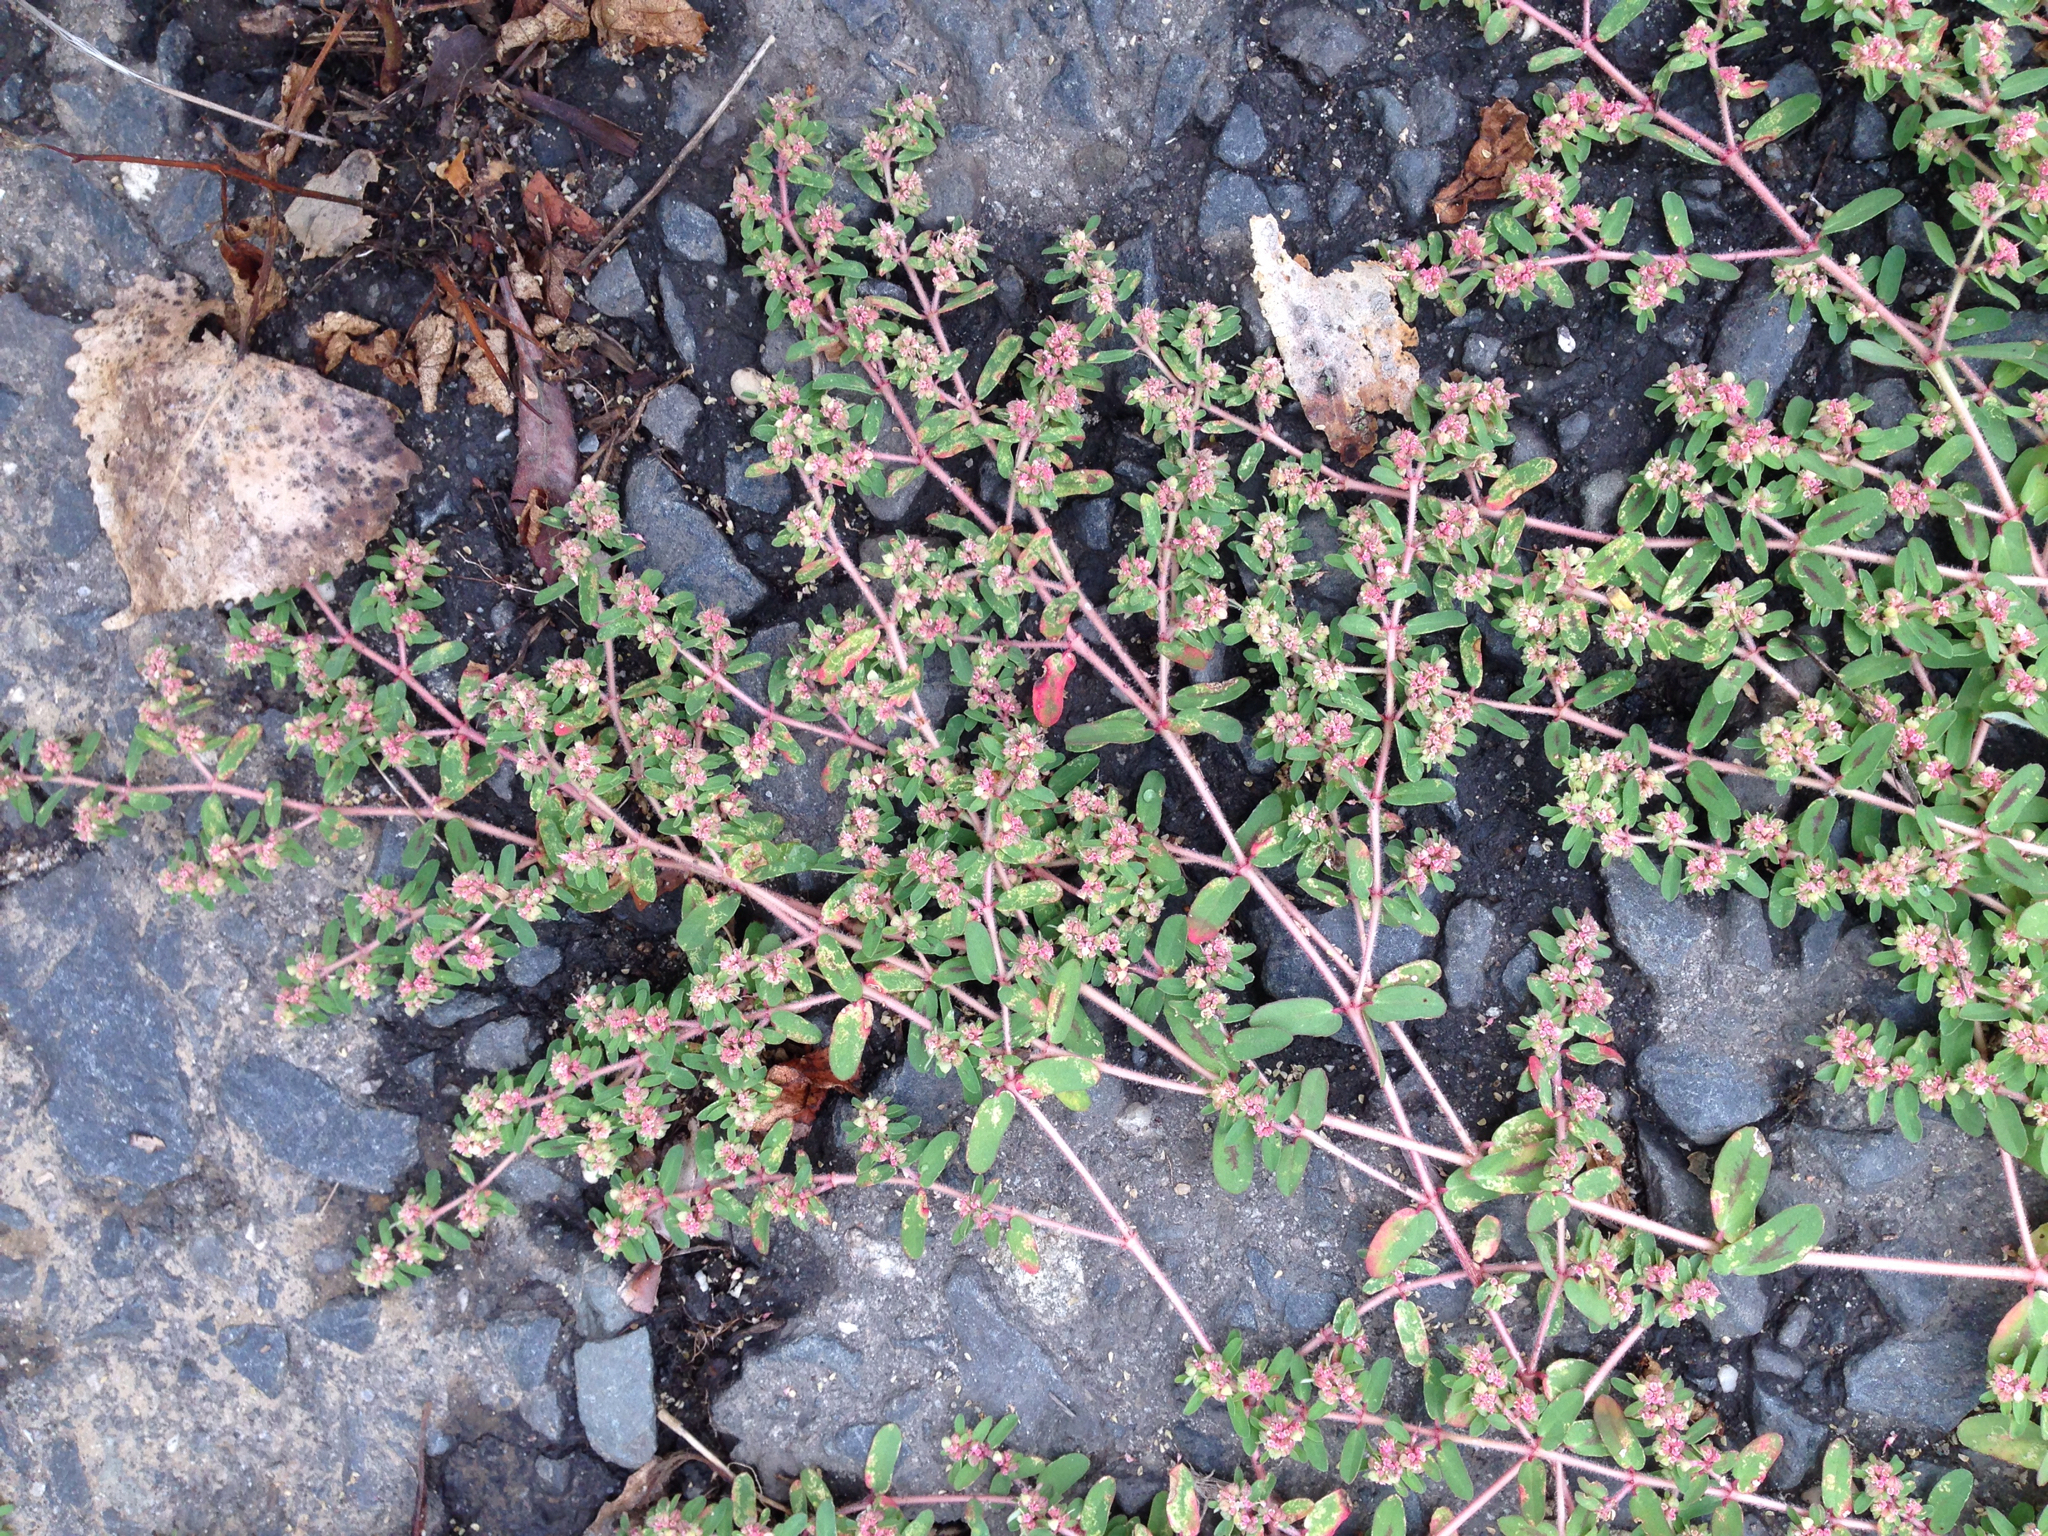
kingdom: Plantae
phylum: Tracheophyta
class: Magnoliopsida
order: Malpighiales
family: Euphorbiaceae
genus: Euphorbia
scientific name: Euphorbia maculata
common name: Spotted spurge
